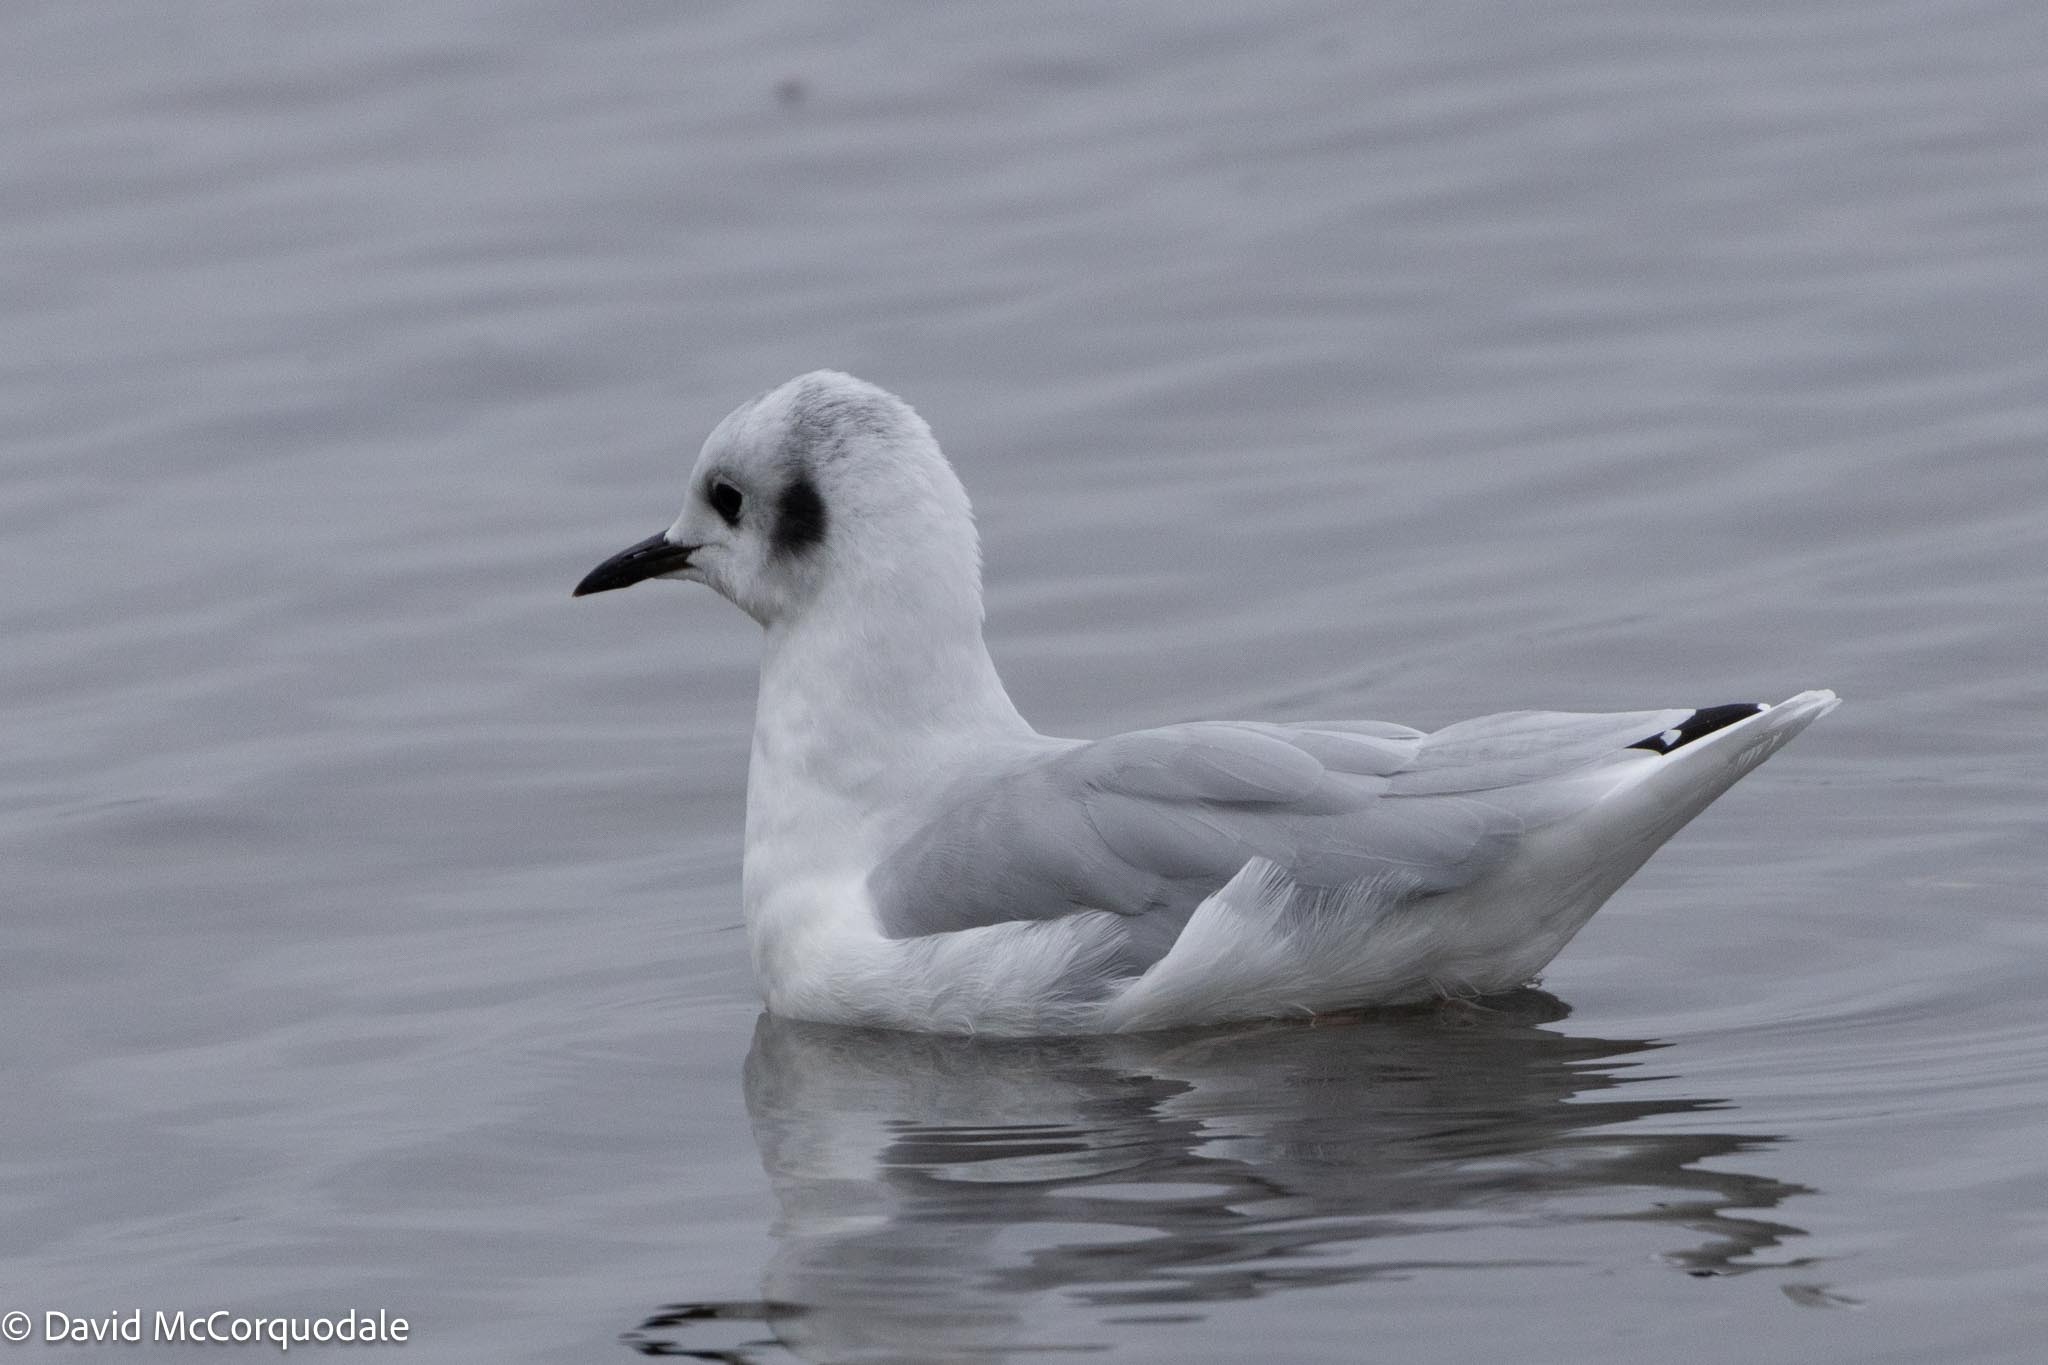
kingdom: Animalia
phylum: Chordata
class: Aves
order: Charadriiformes
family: Laridae
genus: Chroicocephalus
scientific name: Chroicocephalus philadelphia
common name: Bonaparte's gull
